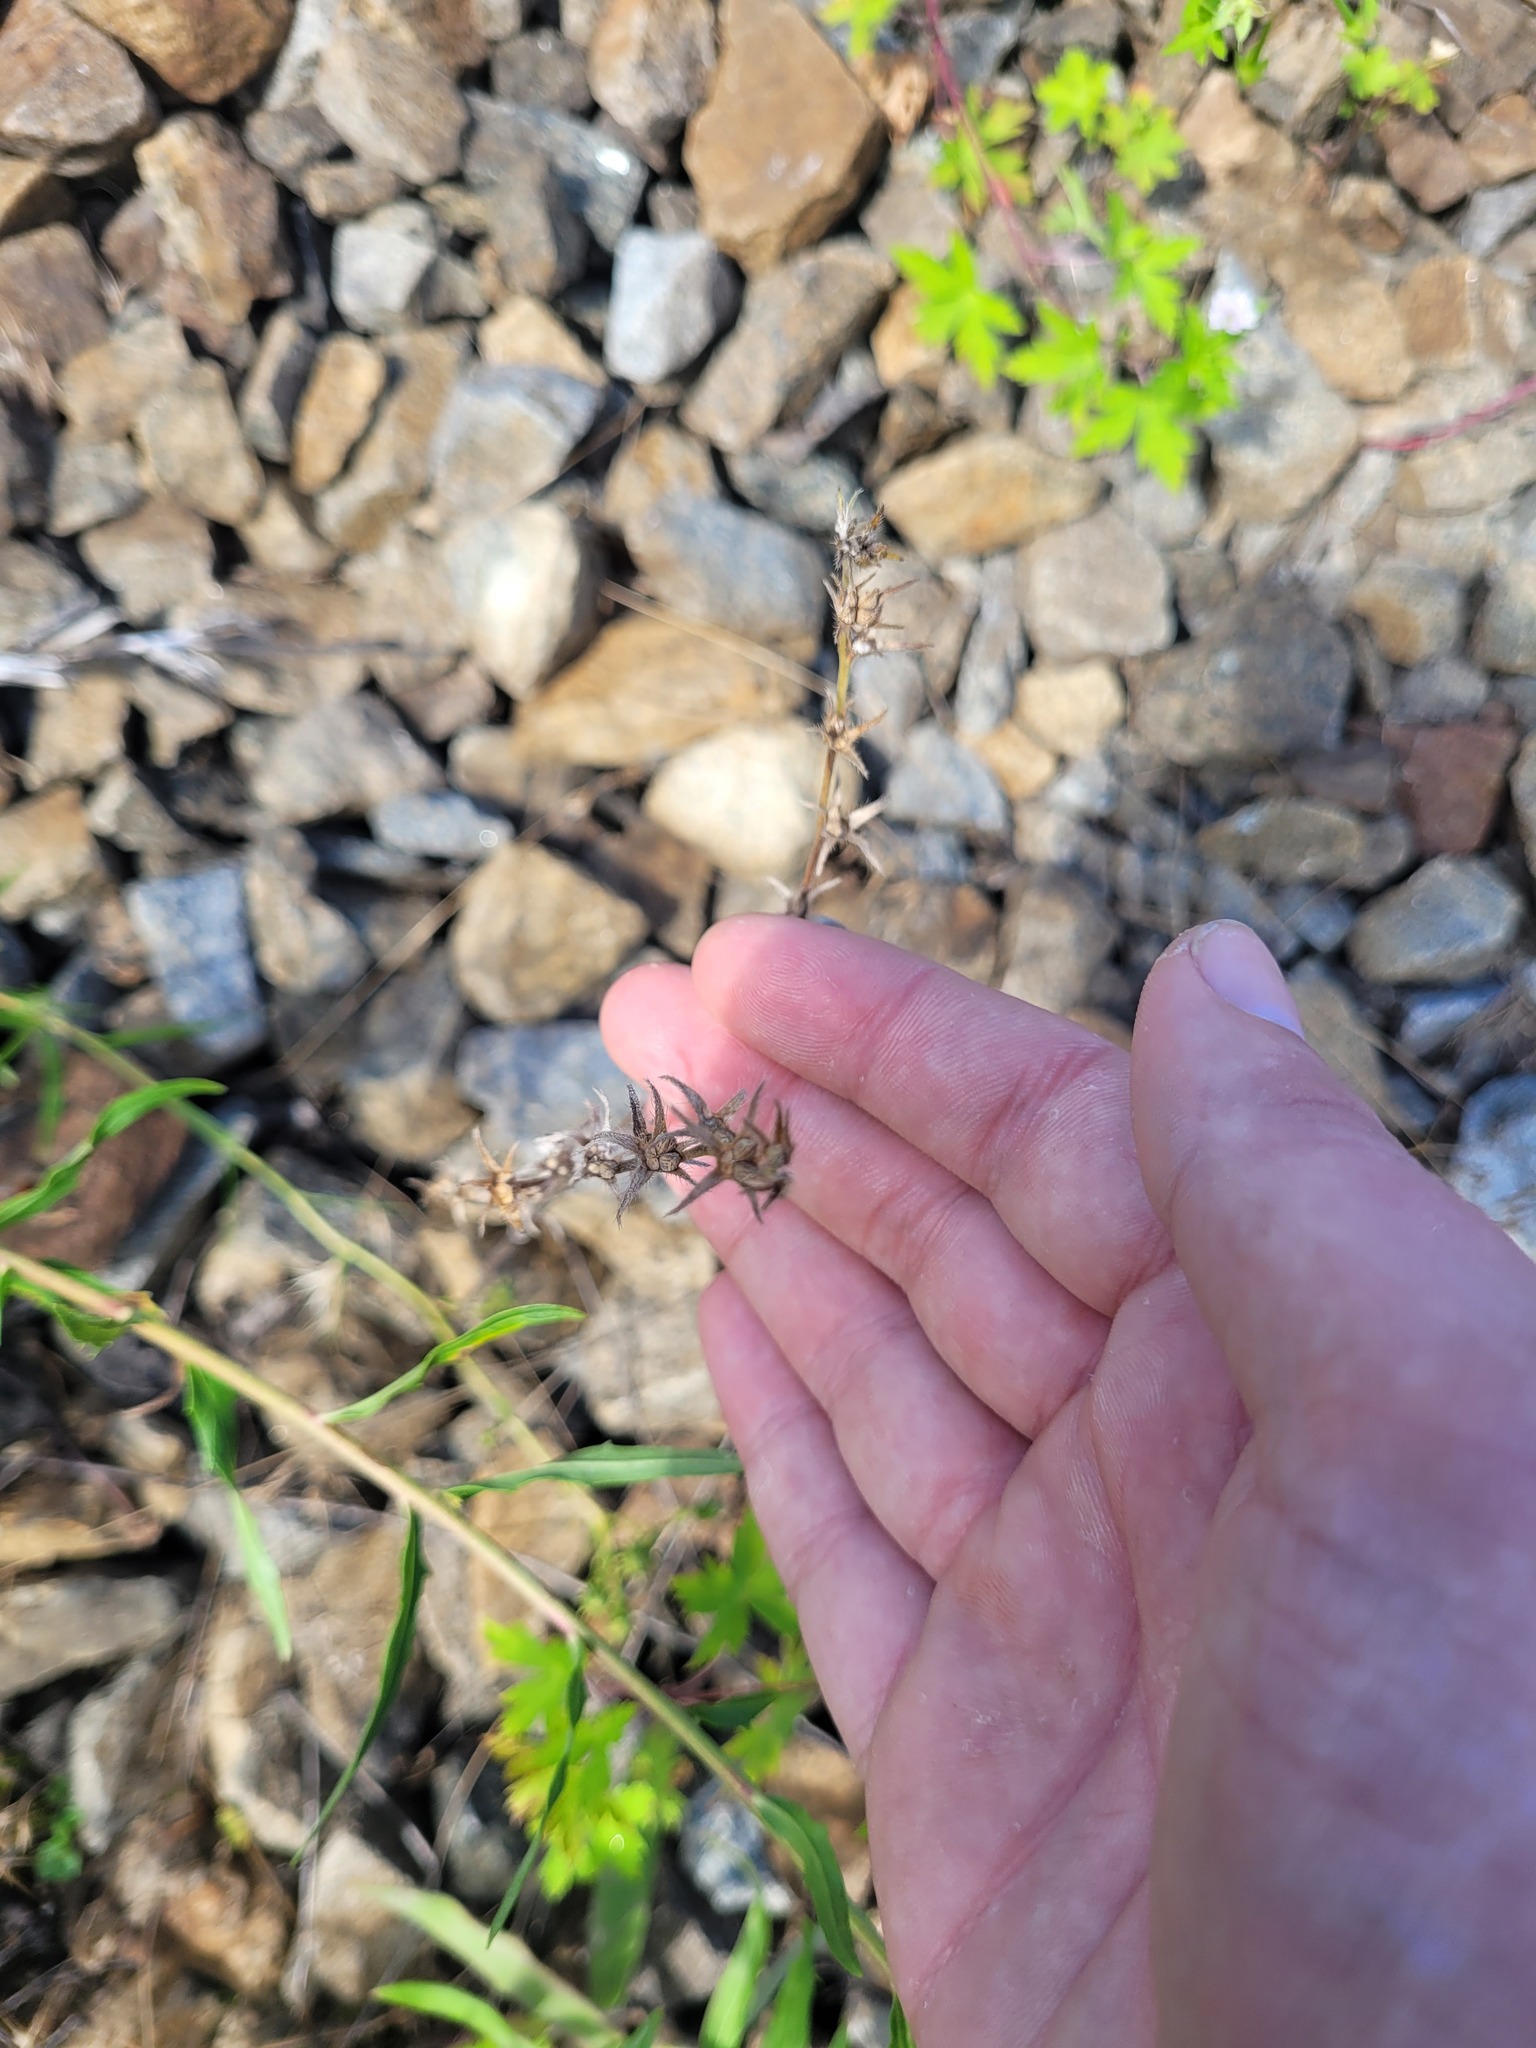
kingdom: Plantae
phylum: Tracheophyta
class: Magnoliopsida
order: Boraginales
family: Boraginaceae
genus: Buglossoides
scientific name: Buglossoides arvensis
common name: Corn gromwell
